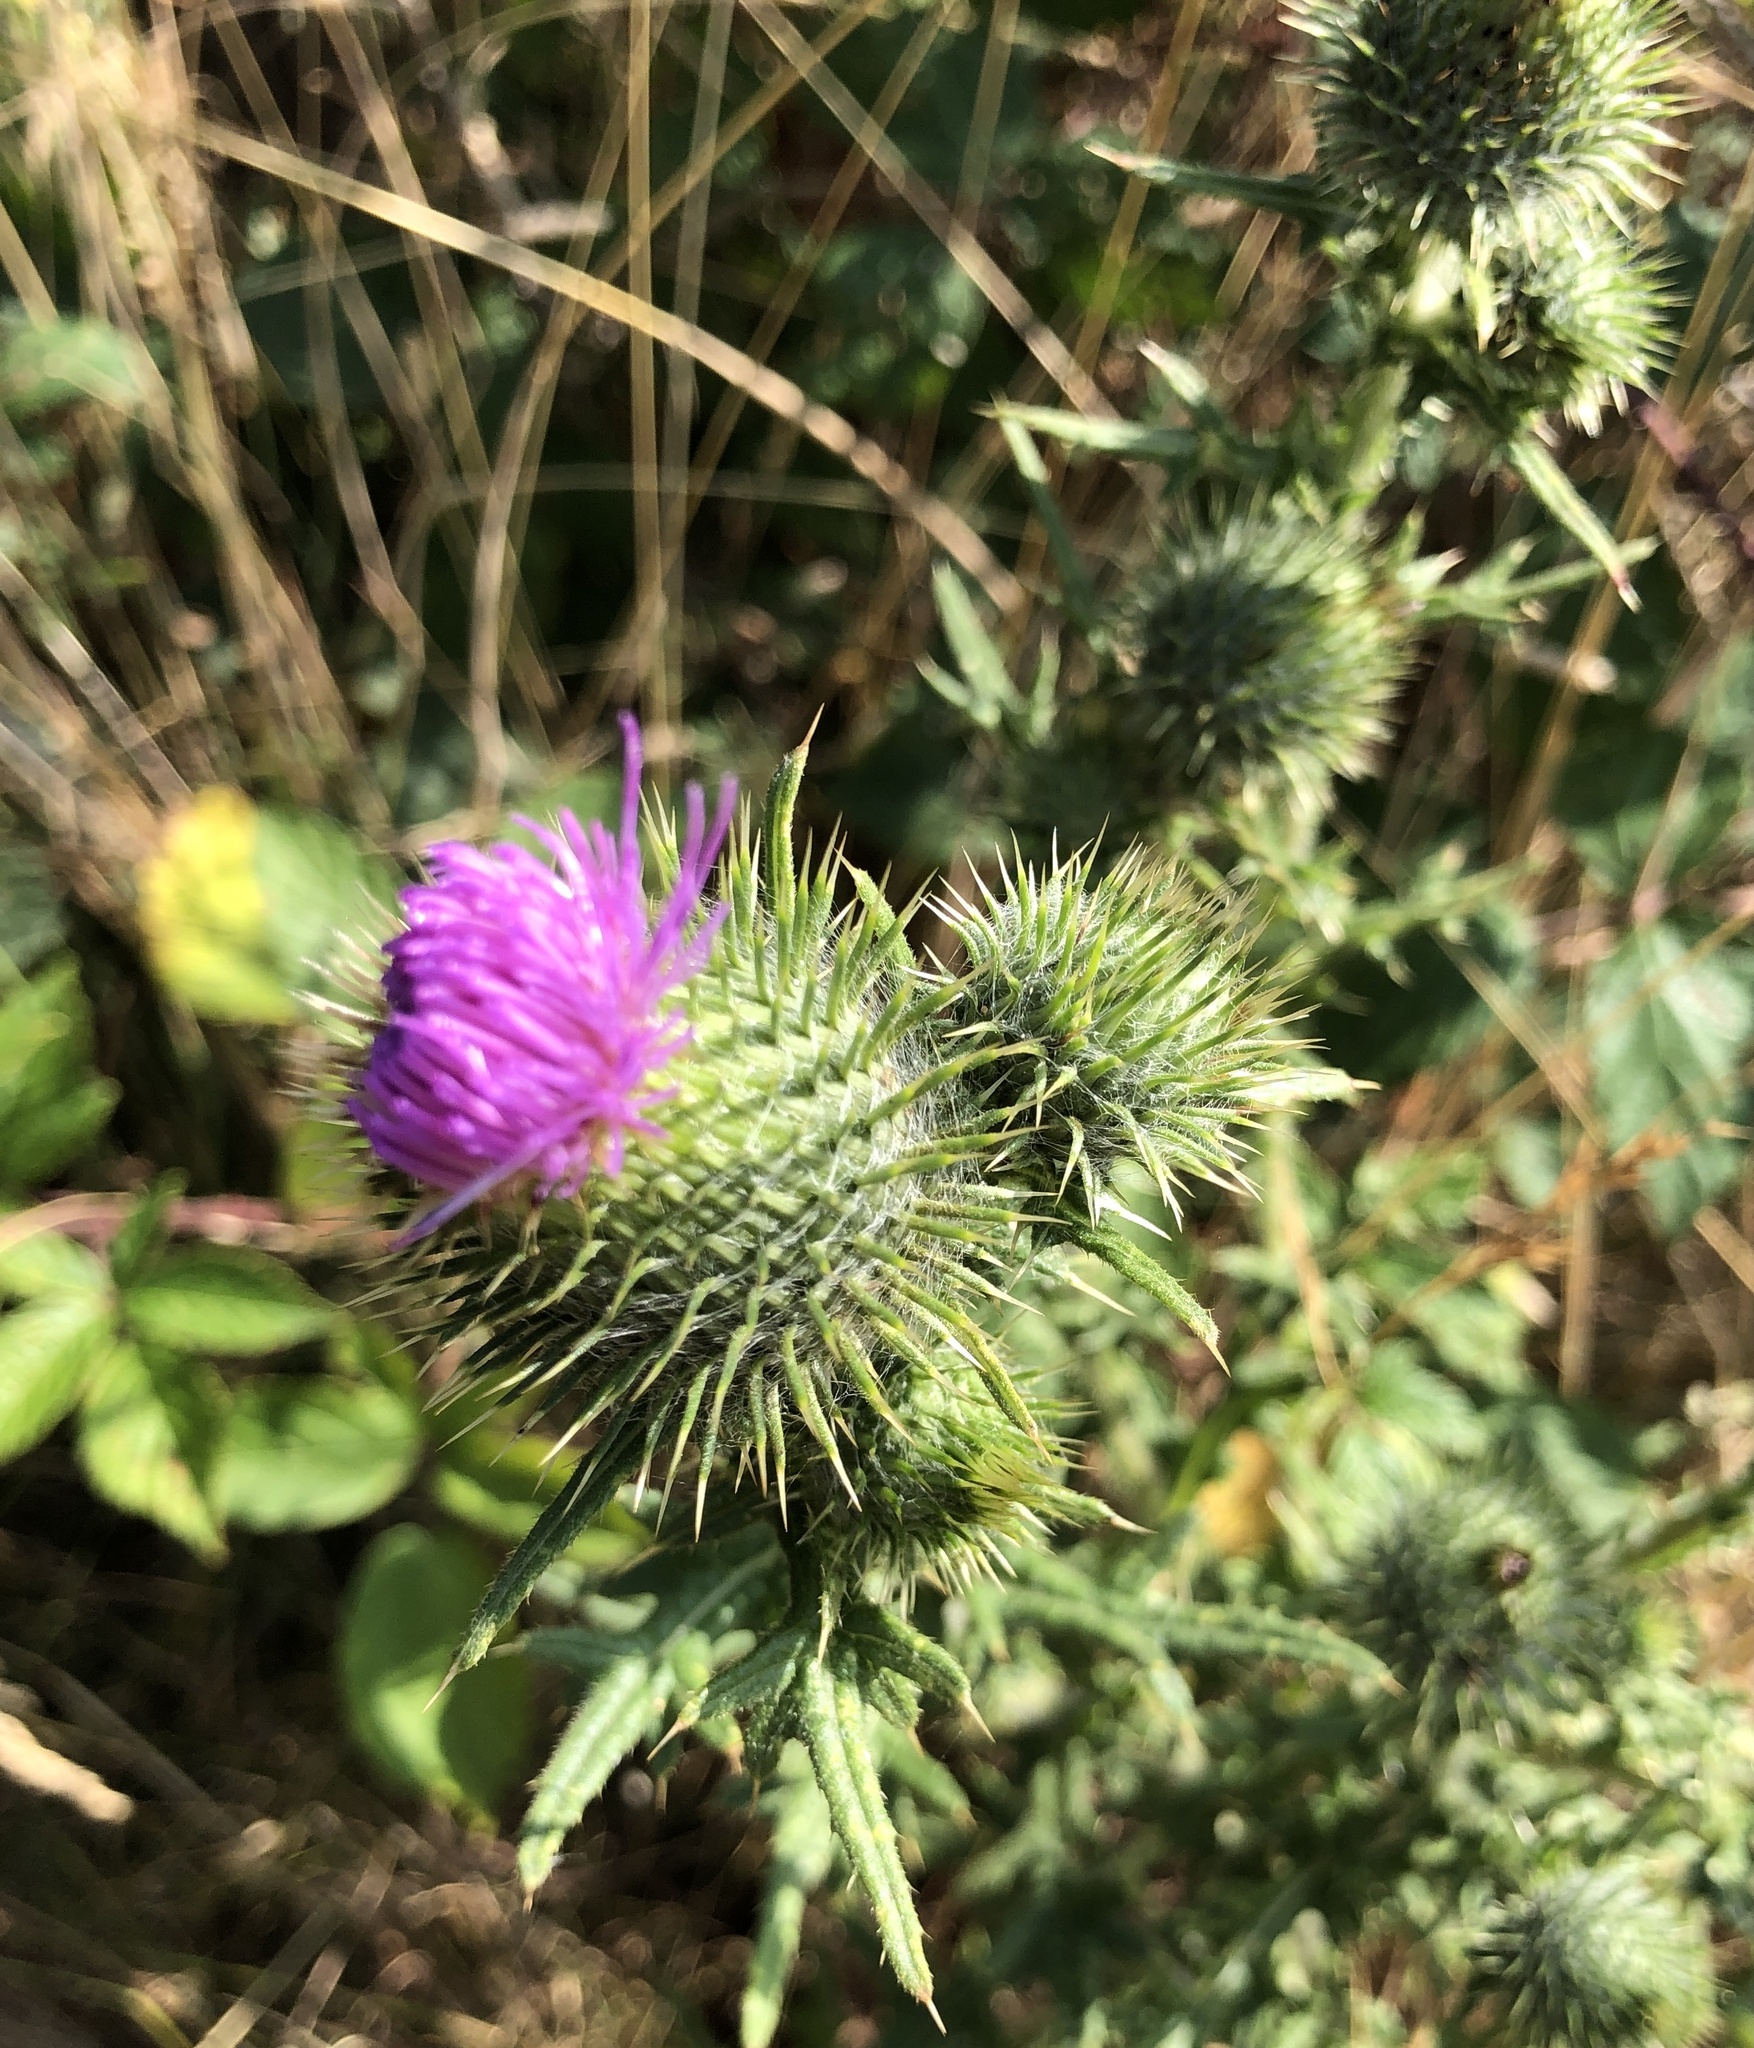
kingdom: Plantae
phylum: Tracheophyta
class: Magnoliopsida
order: Asterales
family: Asteraceae
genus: Cirsium
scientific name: Cirsium vulgare
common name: Bull thistle
